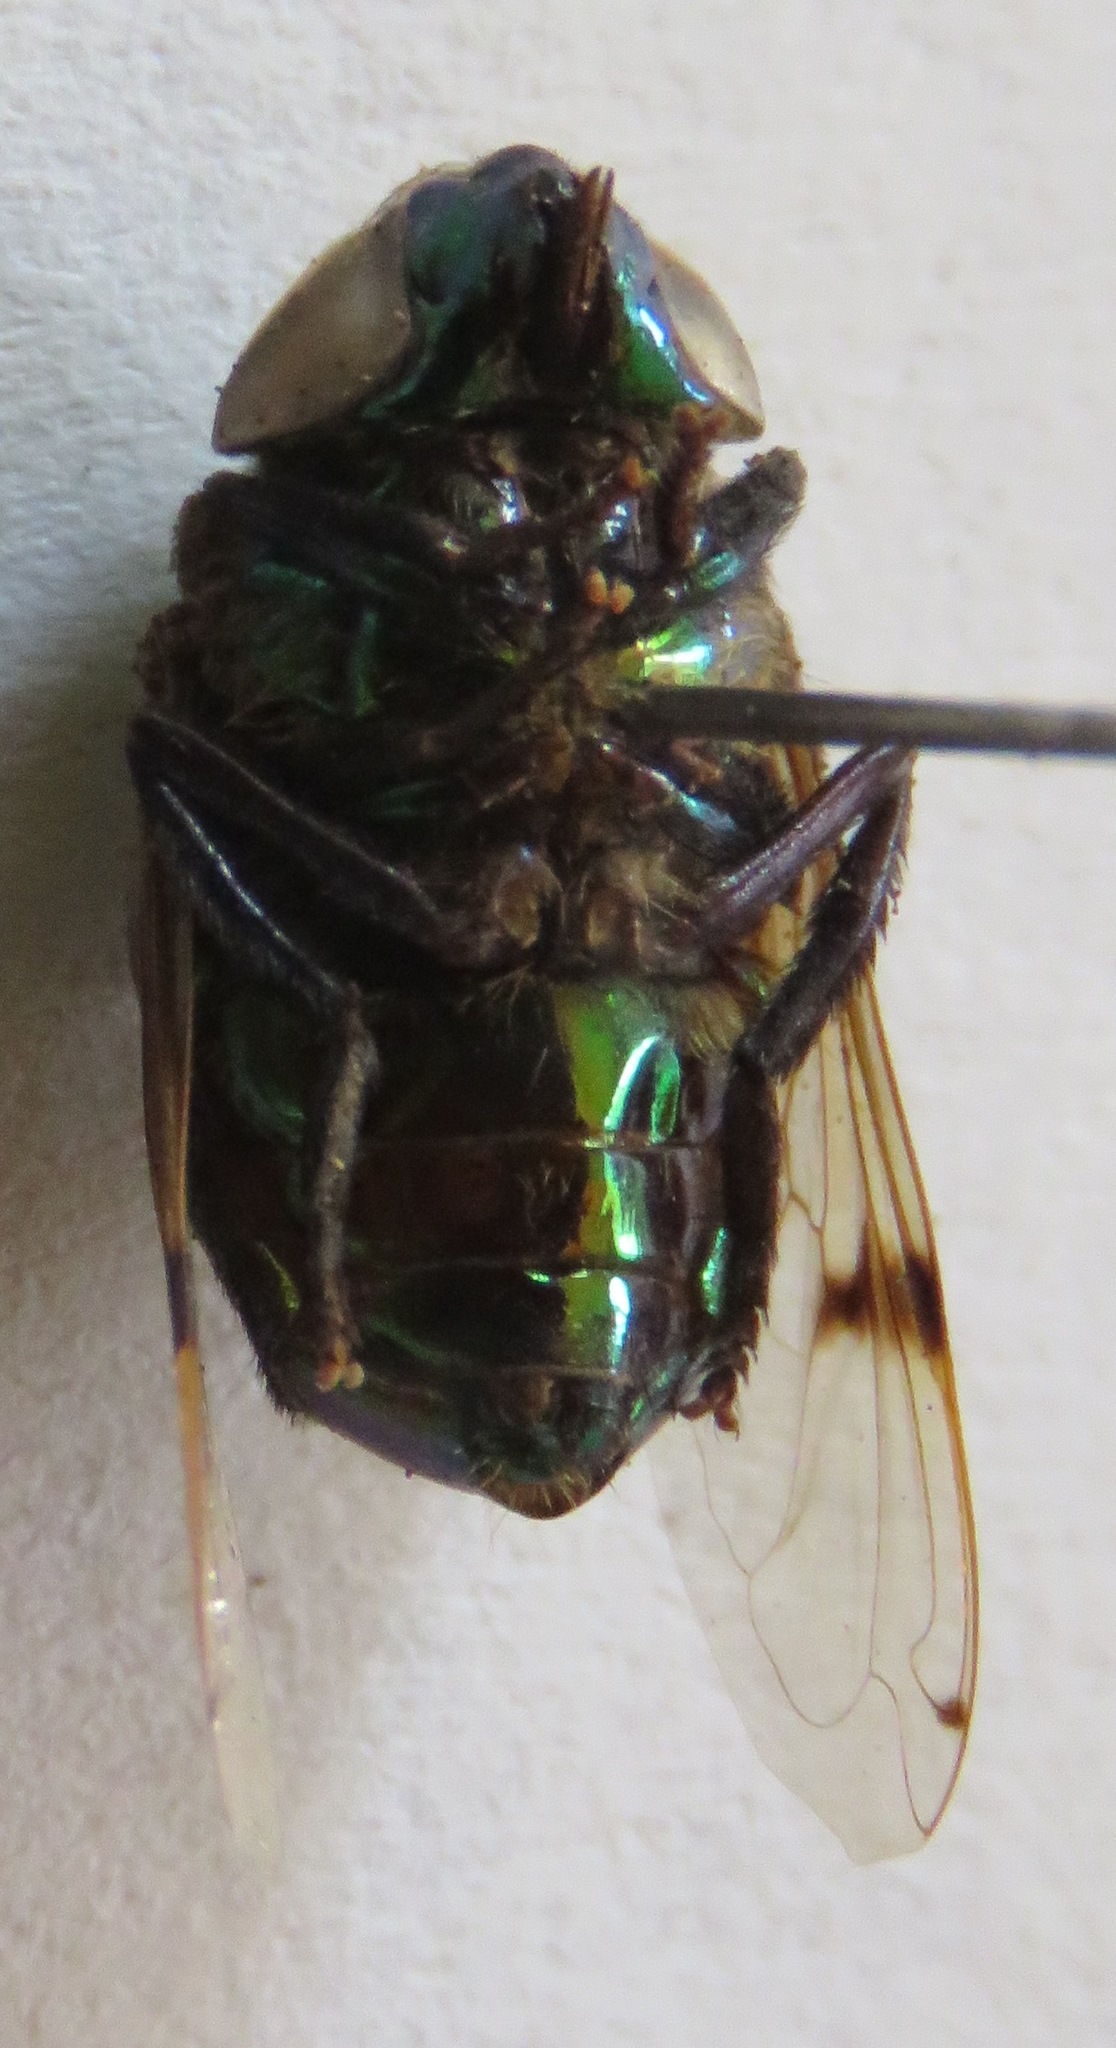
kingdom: Animalia
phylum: Arthropoda
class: Insecta
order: Diptera
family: Syrphidae
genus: Ornidia
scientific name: Ornidia obesa
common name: Syrphid fly
